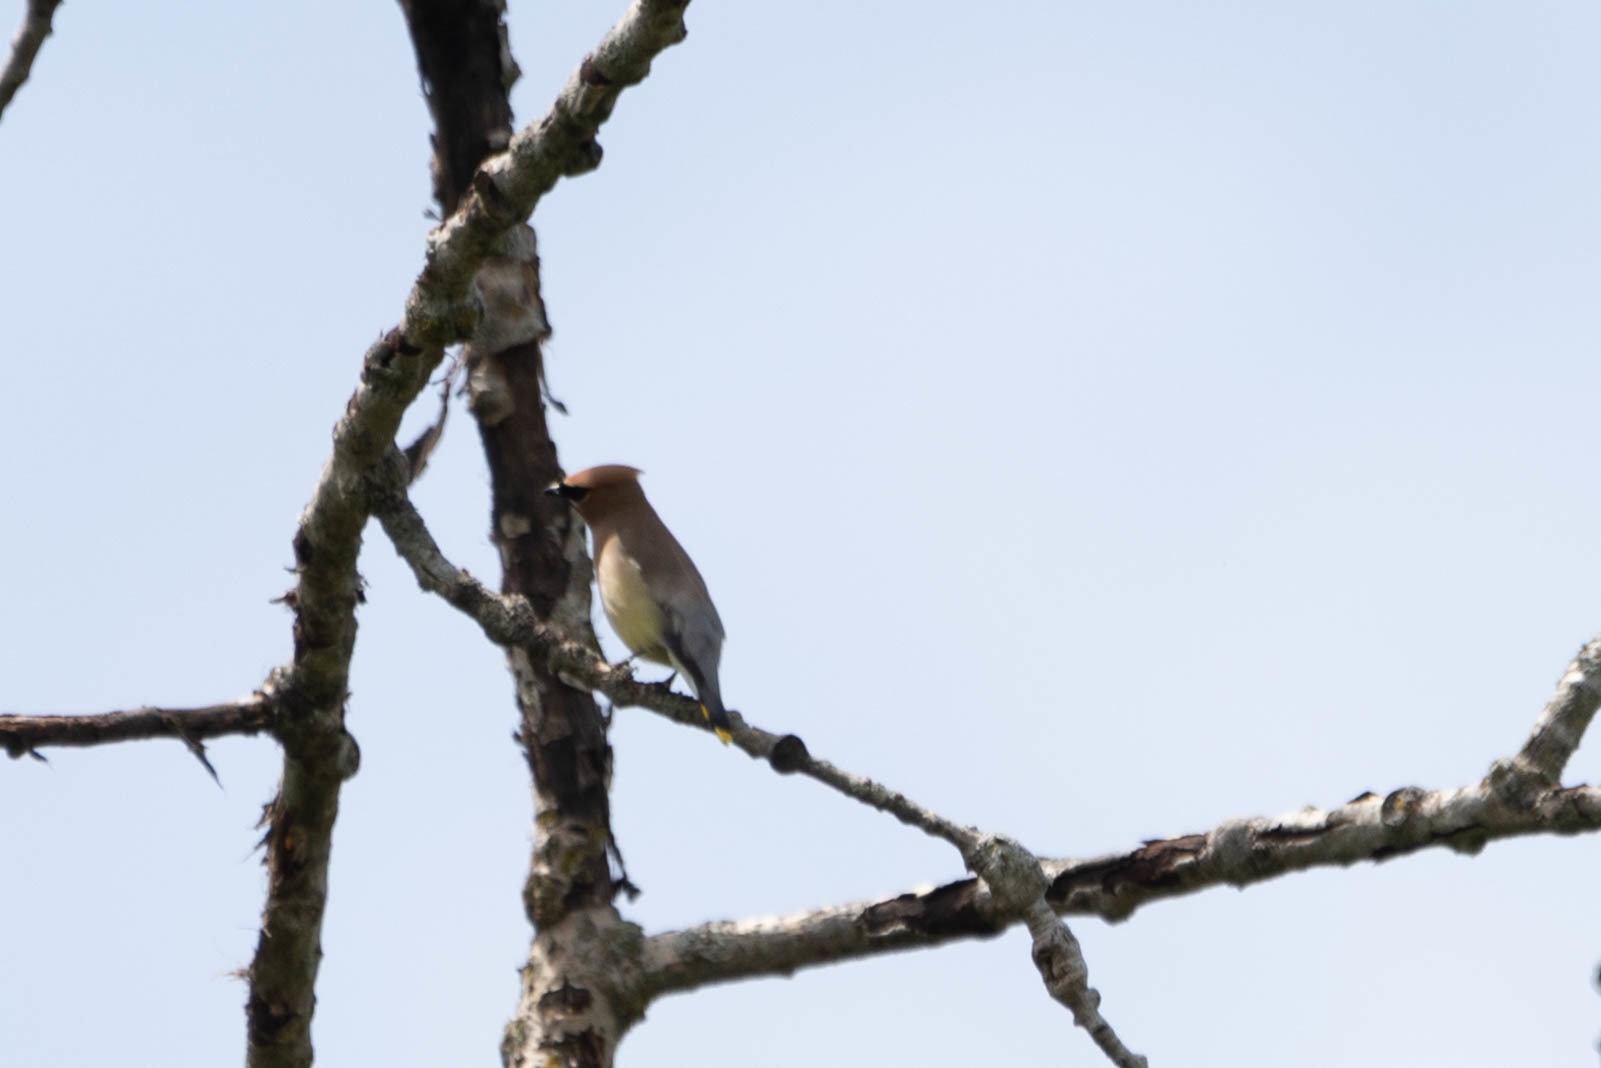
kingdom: Animalia
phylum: Chordata
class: Aves
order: Passeriformes
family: Bombycillidae
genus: Bombycilla
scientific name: Bombycilla cedrorum
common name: Cedar waxwing
